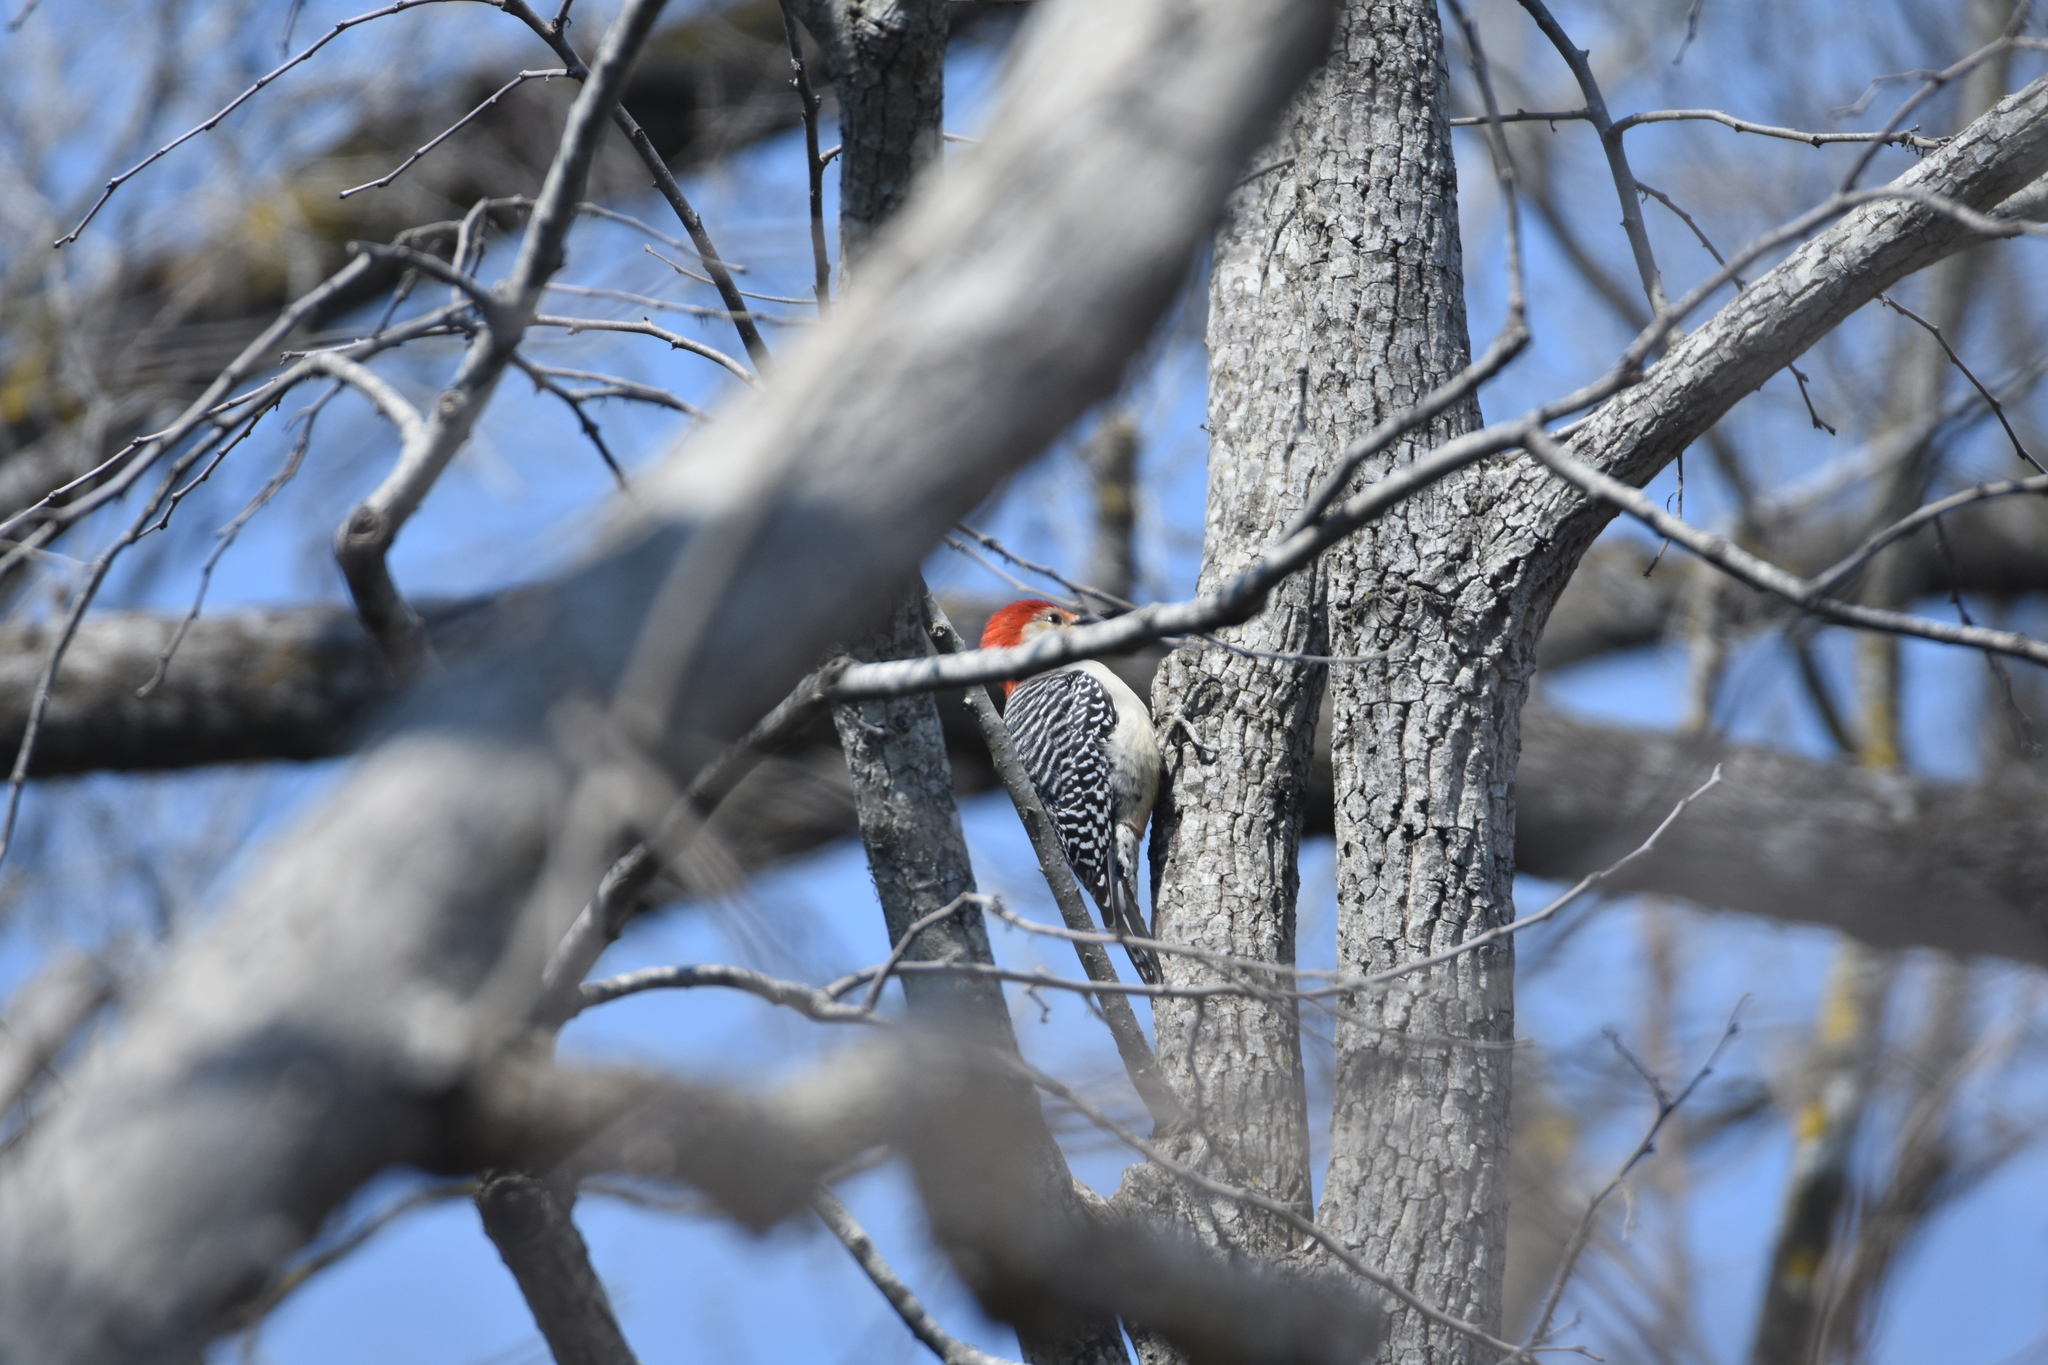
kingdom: Animalia
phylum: Chordata
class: Aves
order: Piciformes
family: Picidae
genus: Melanerpes
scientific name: Melanerpes carolinus
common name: Red-bellied woodpecker
